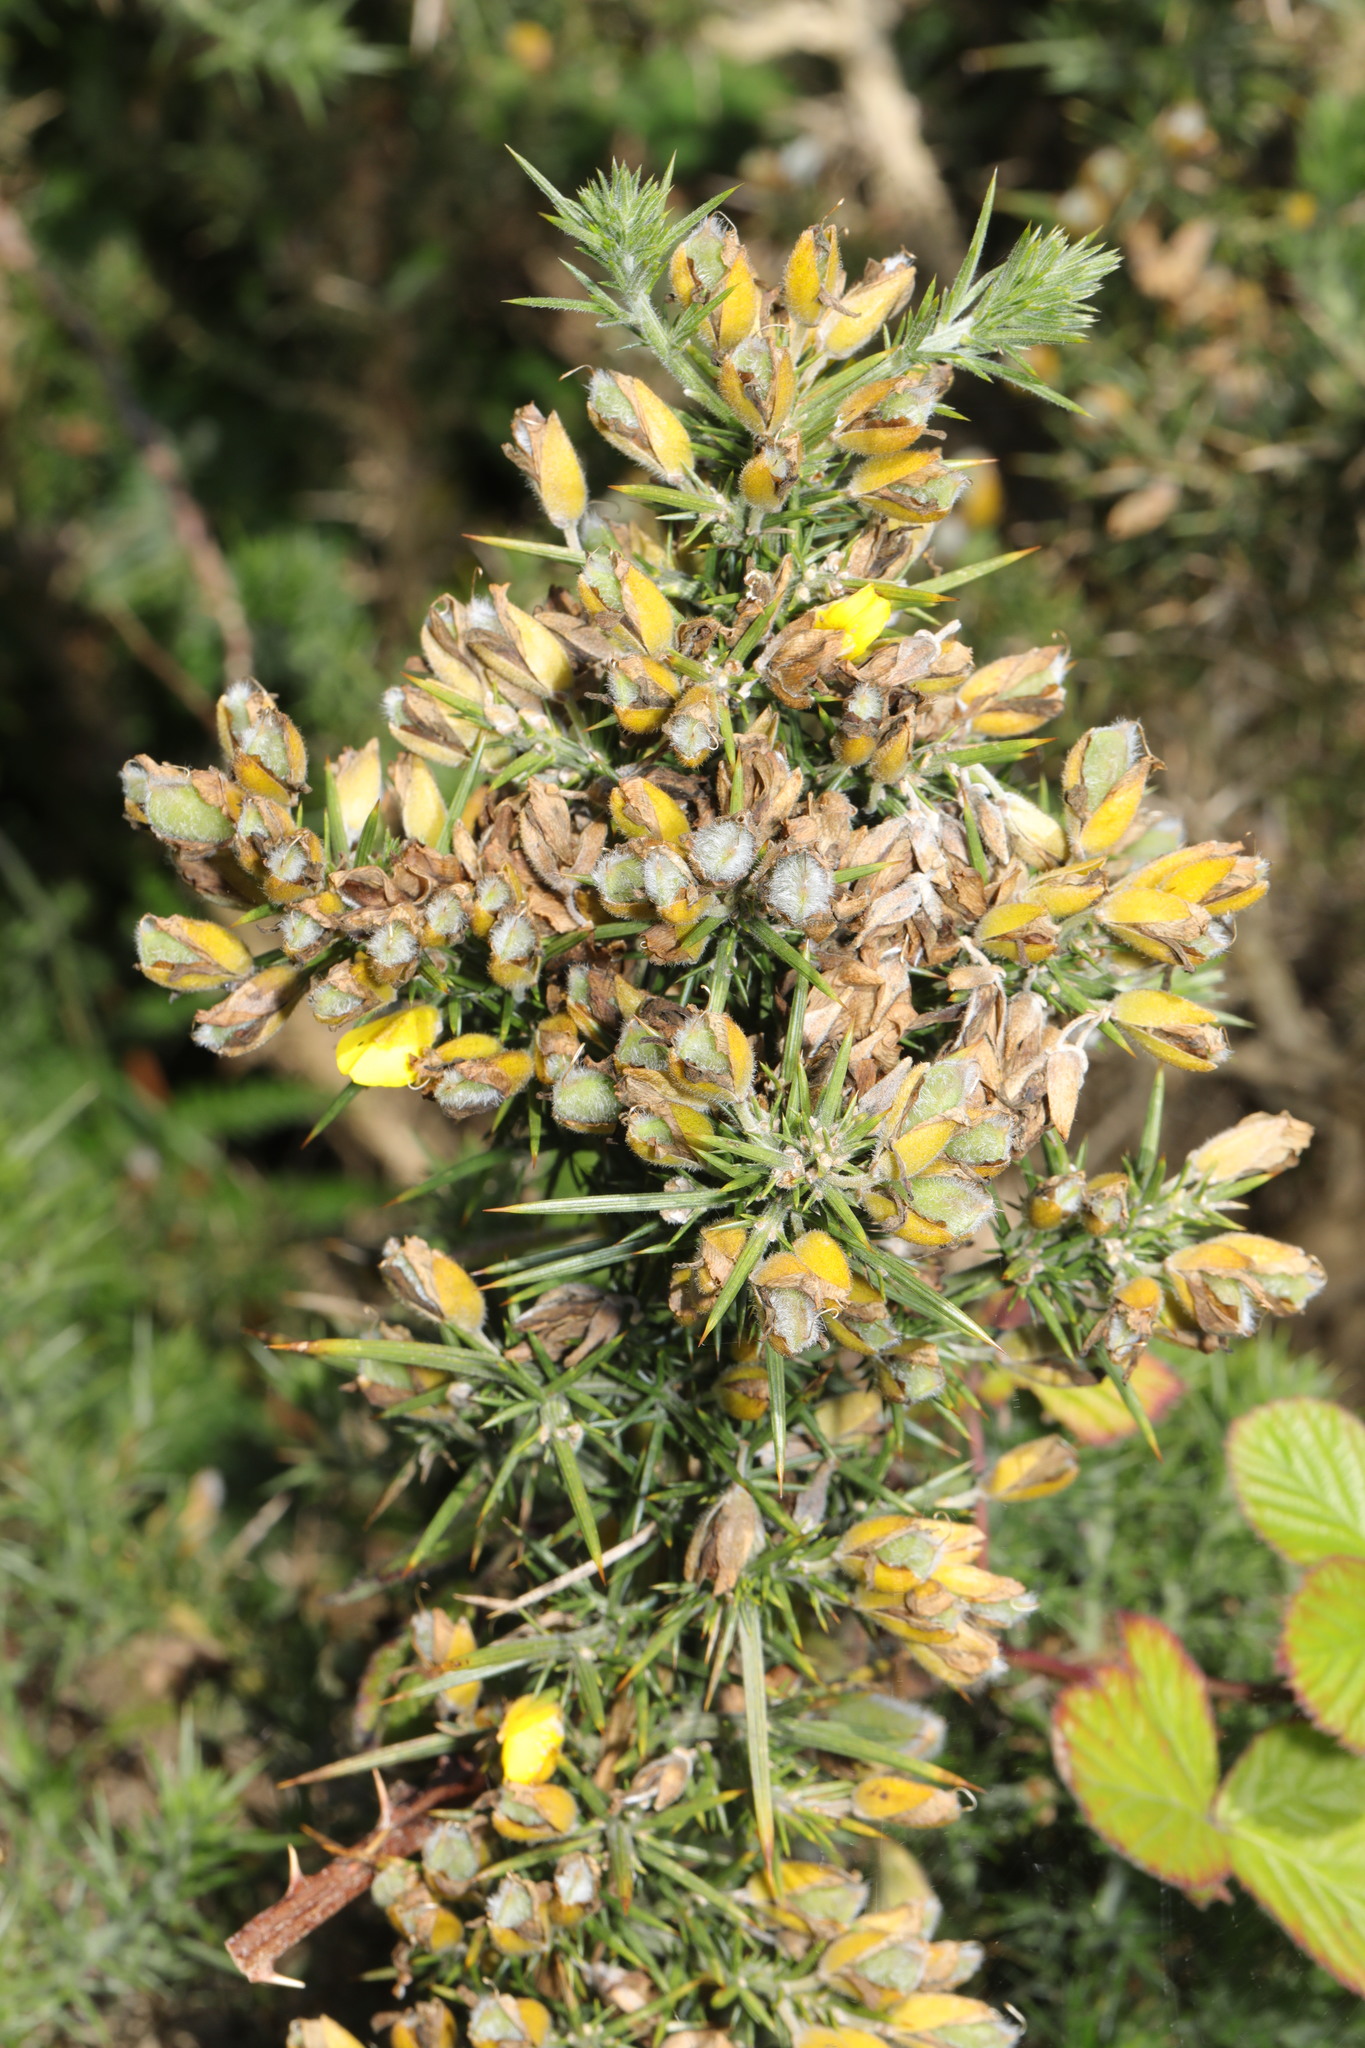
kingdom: Plantae
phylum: Tracheophyta
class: Magnoliopsida
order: Fabales
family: Fabaceae
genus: Ulex
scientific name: Ulex europaeus
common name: Common gorse
